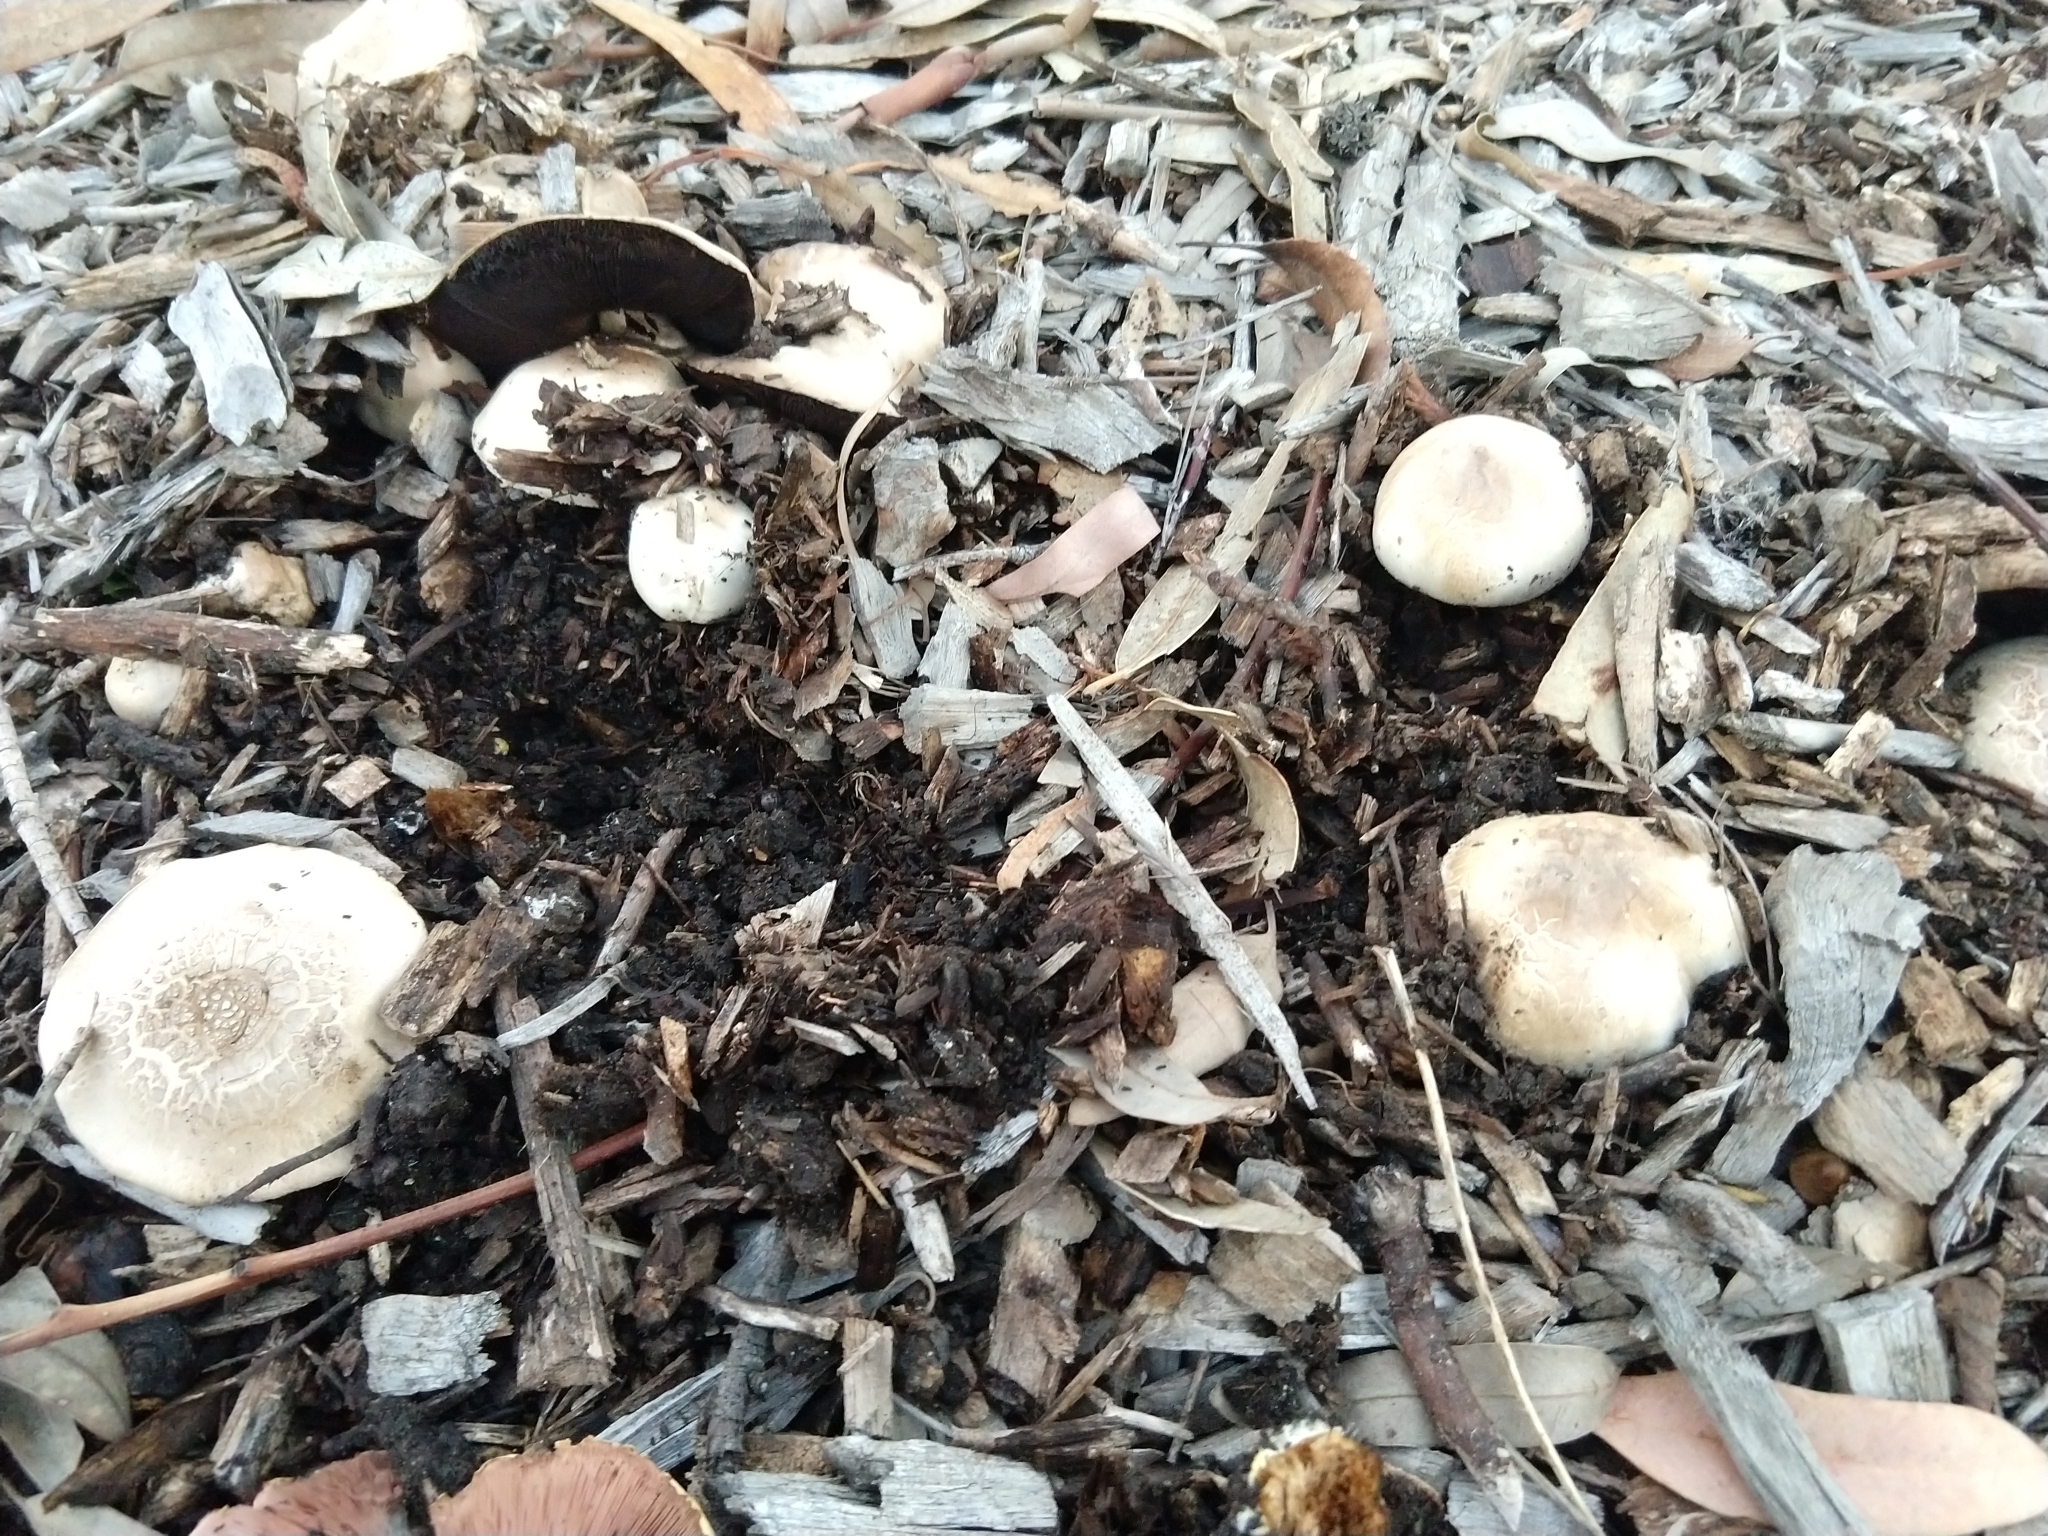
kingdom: Fungi
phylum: Basidiomycota
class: Agaricomycetes
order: Agaricales
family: Agaricaceae
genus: Agaricus
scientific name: Agaricus xanthodermus
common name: Yellow stainer
